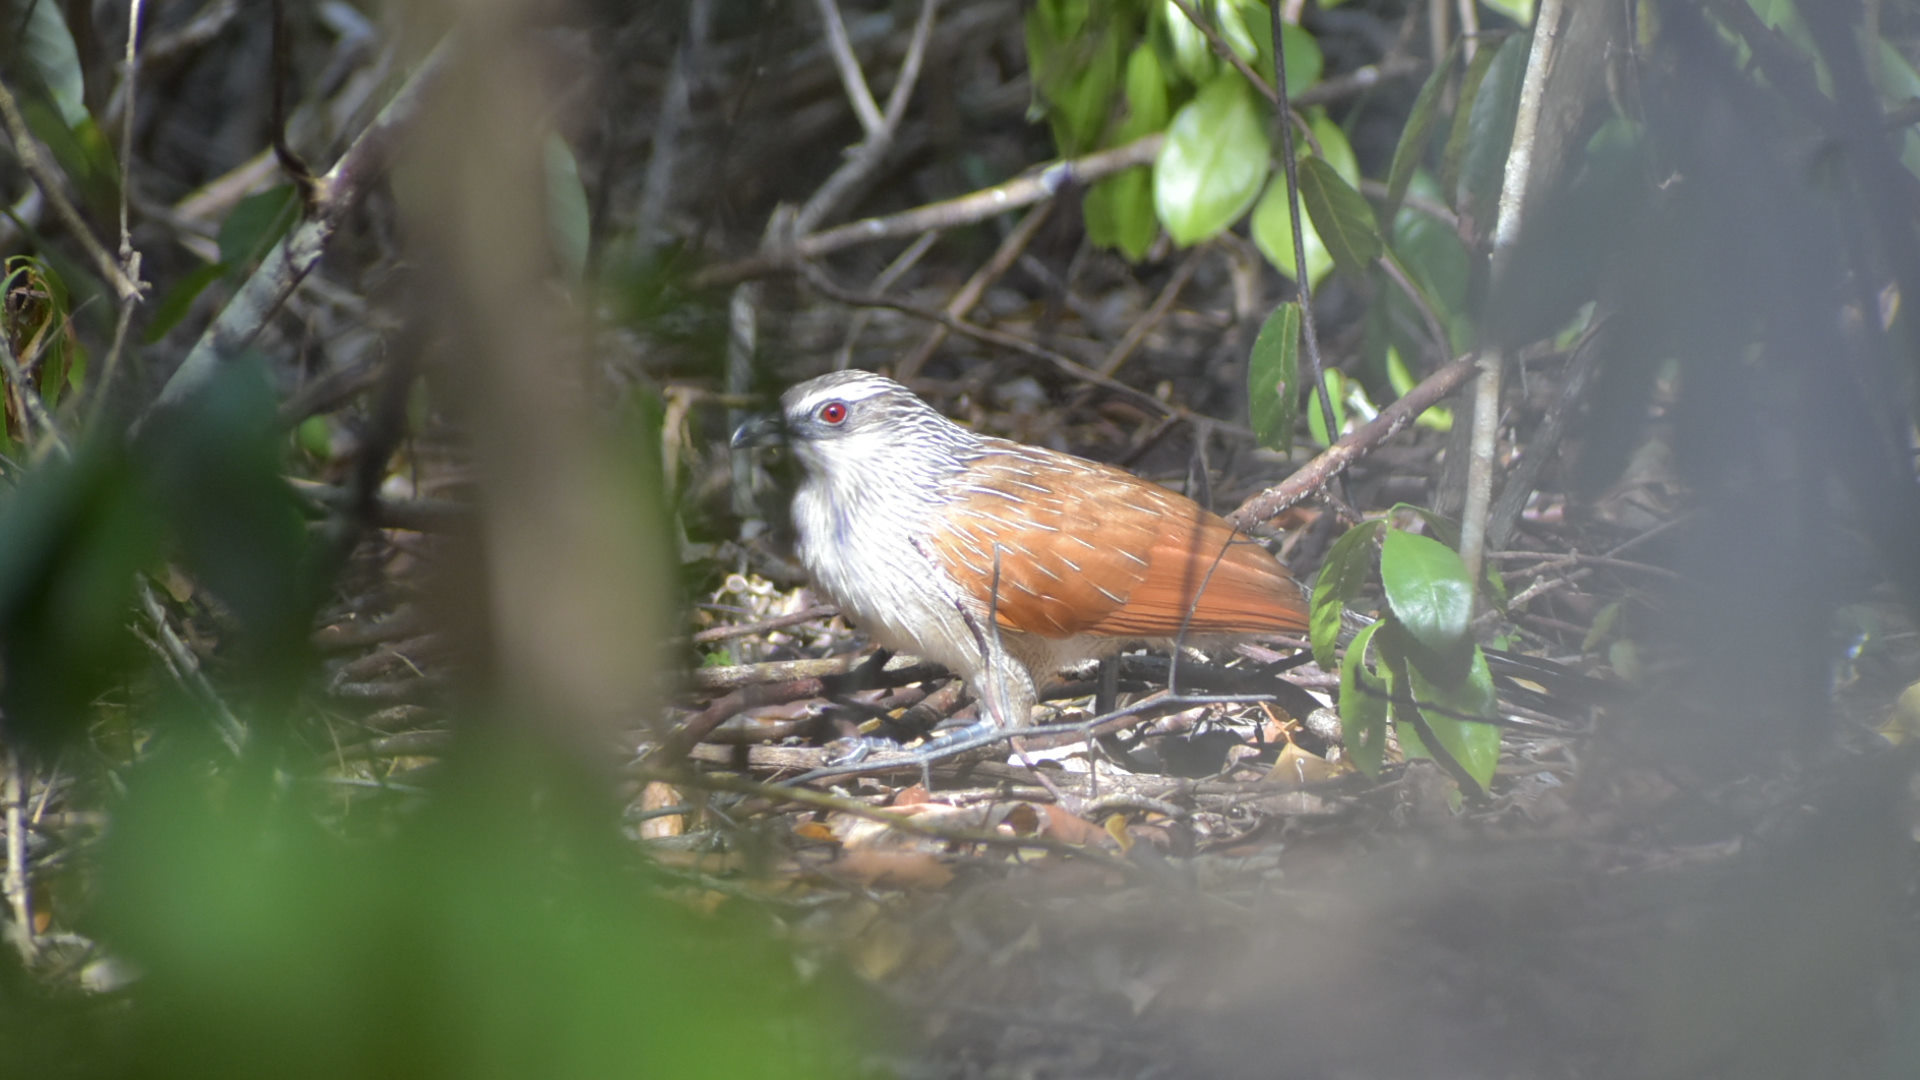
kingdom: Animalia
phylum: Chordata
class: Aves
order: Cuculiformes
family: Cuculidae
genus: Centropus
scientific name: Centropus superciliosus
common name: White-browed coucal
